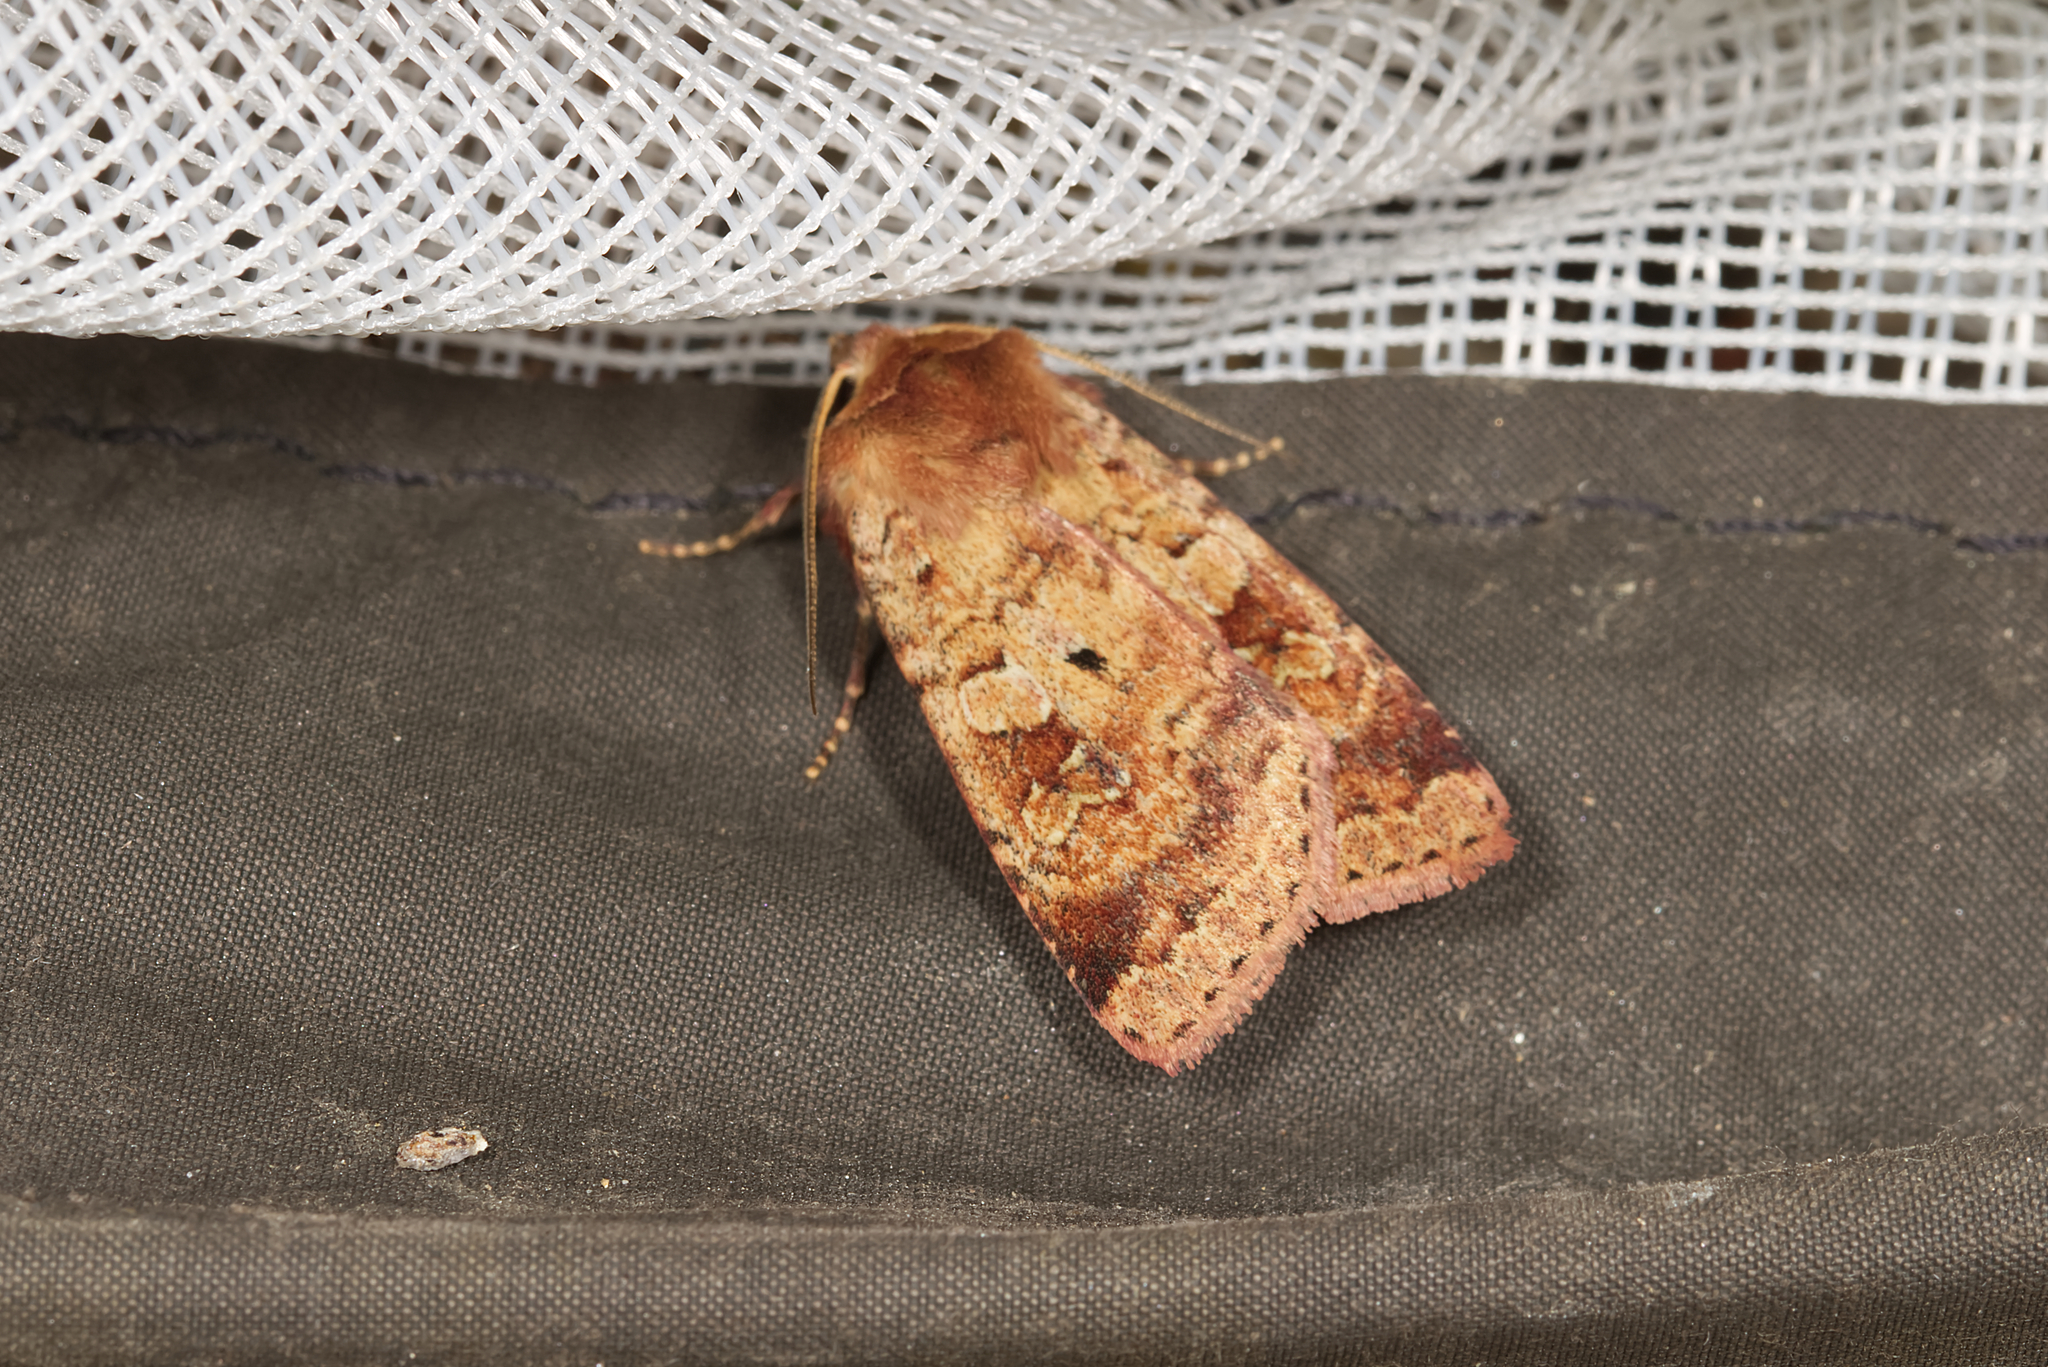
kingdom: Animalia
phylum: Arthropoda
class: Insecta
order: Lepidoptera
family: Noctuidae
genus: Diarsia
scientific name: Diarsia mendica
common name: Ingrailed clay
